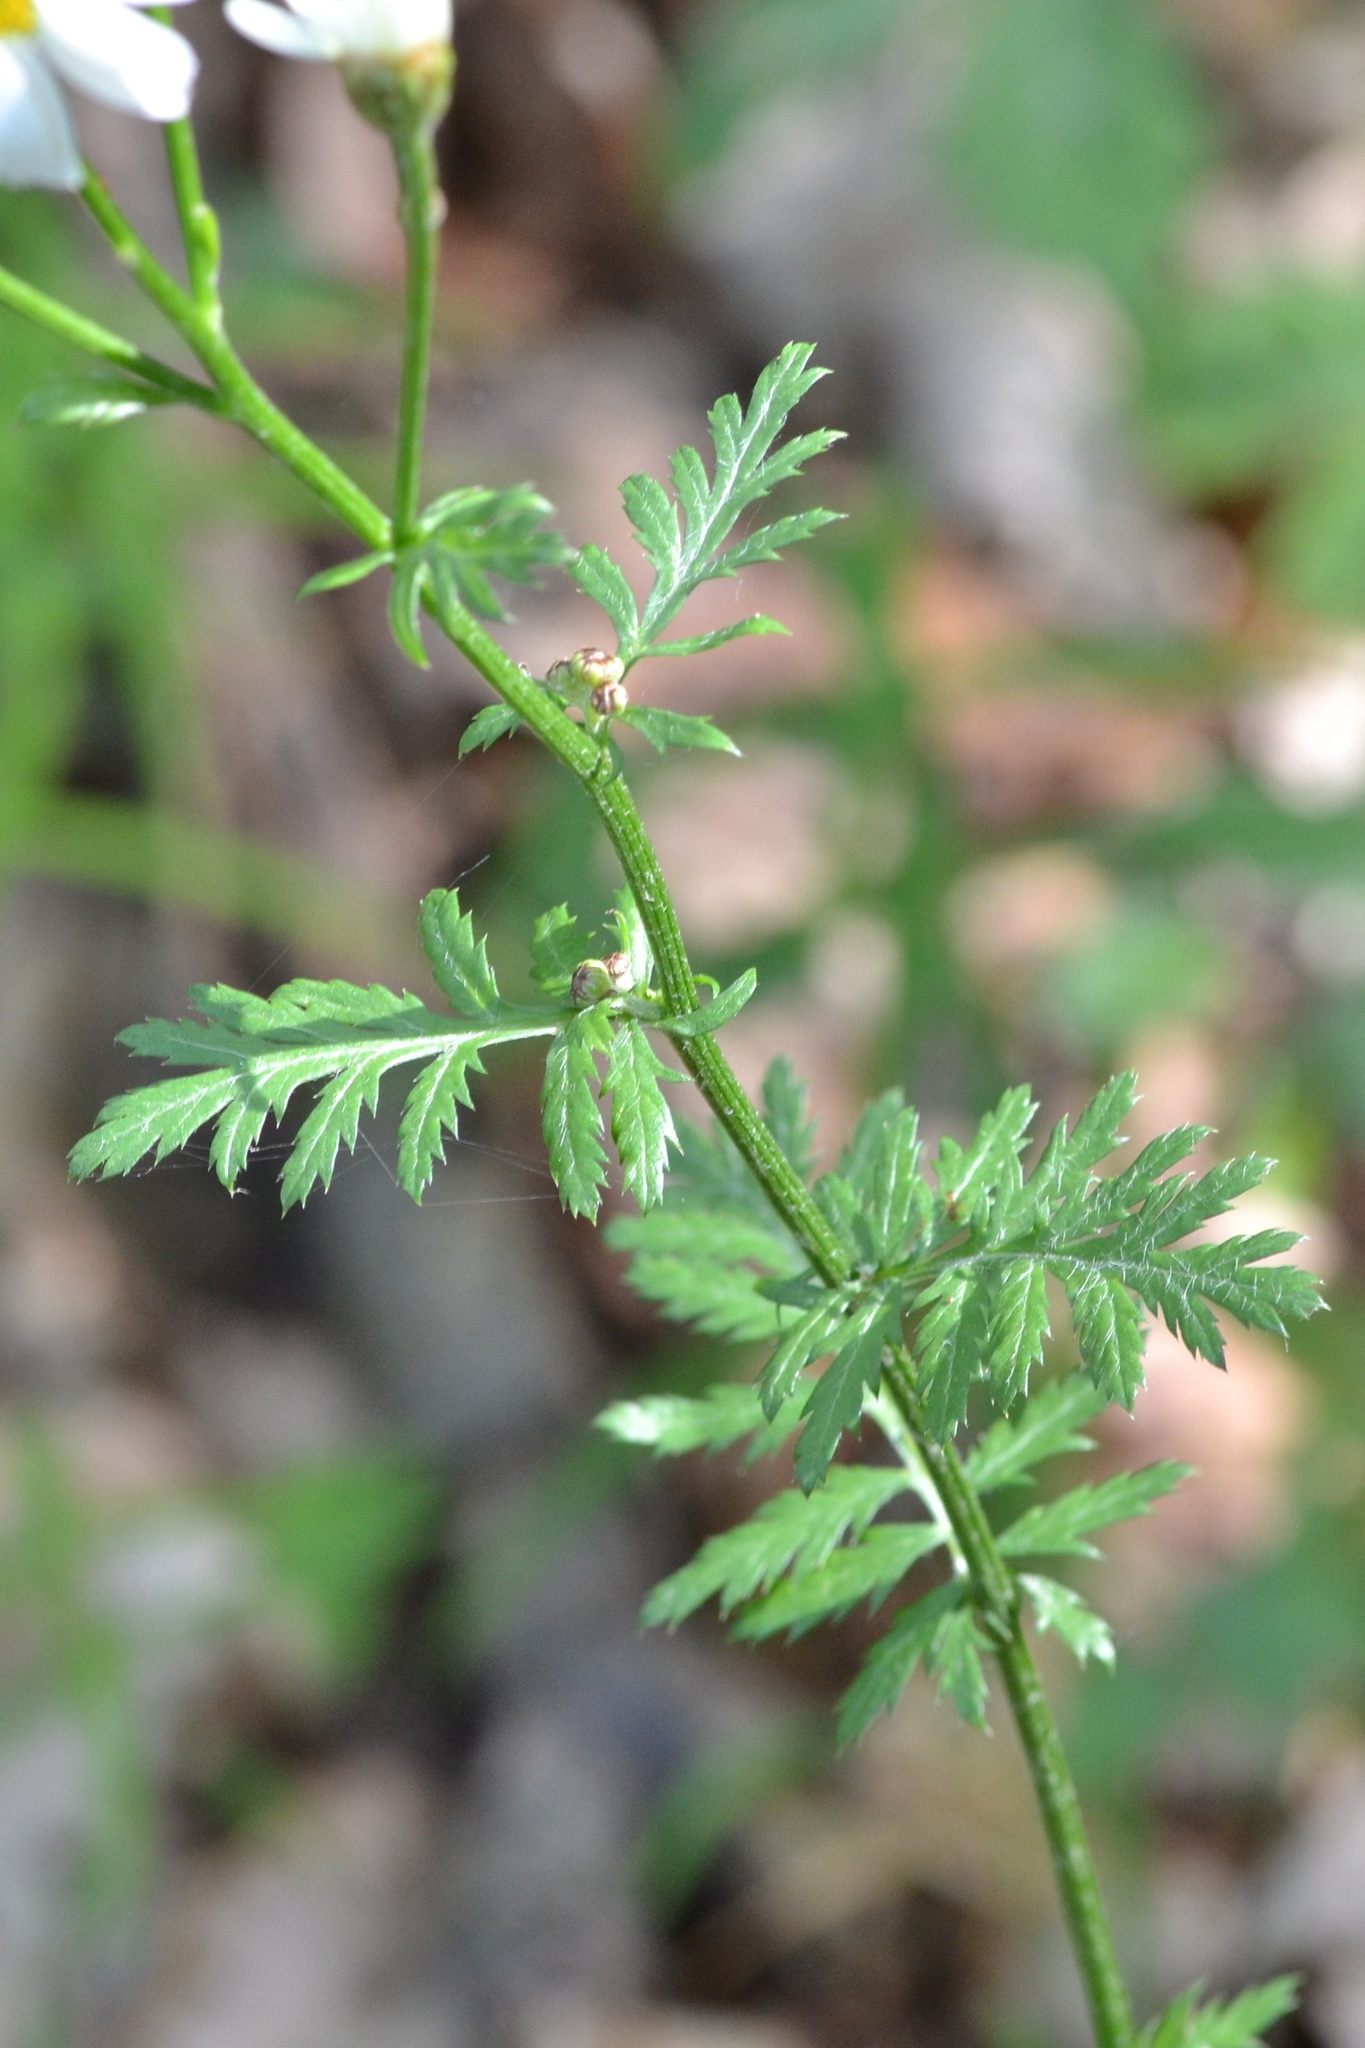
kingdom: Plantae
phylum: Tracheophyta
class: Magnoliopsida
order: Asterales
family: Asteraceae
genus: Tanacetum
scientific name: Tanacetum corymbosum
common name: Scentless feverfew
